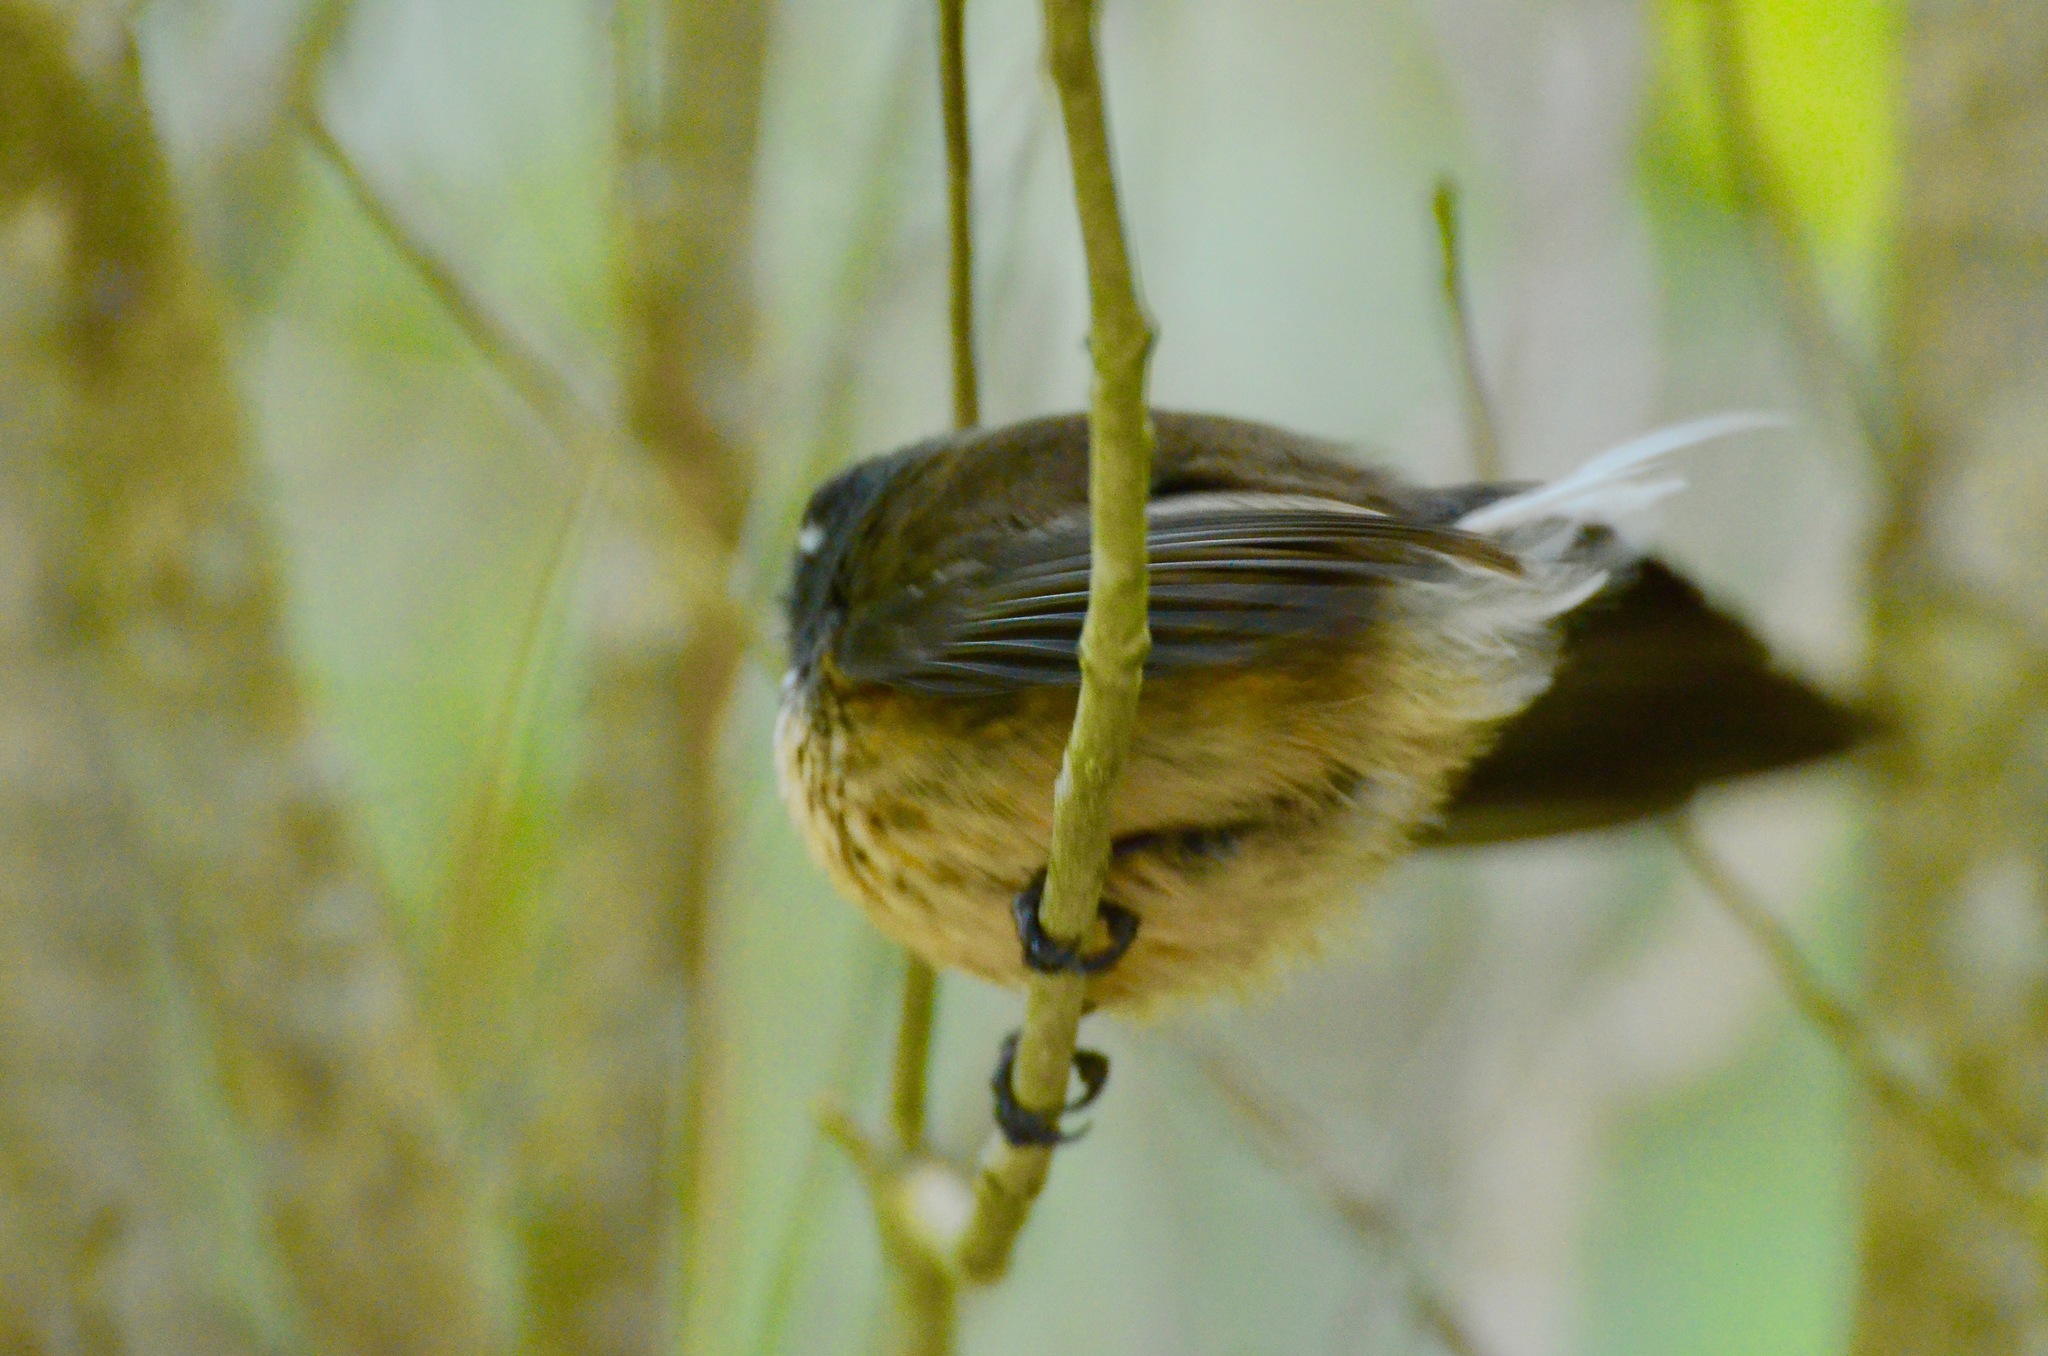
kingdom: Animalia
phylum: Chordata
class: Aves
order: Passeriformes
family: Rhipiduridae
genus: Rhipidura
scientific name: Rhipidura fuliginosa
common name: New zealand fantail
